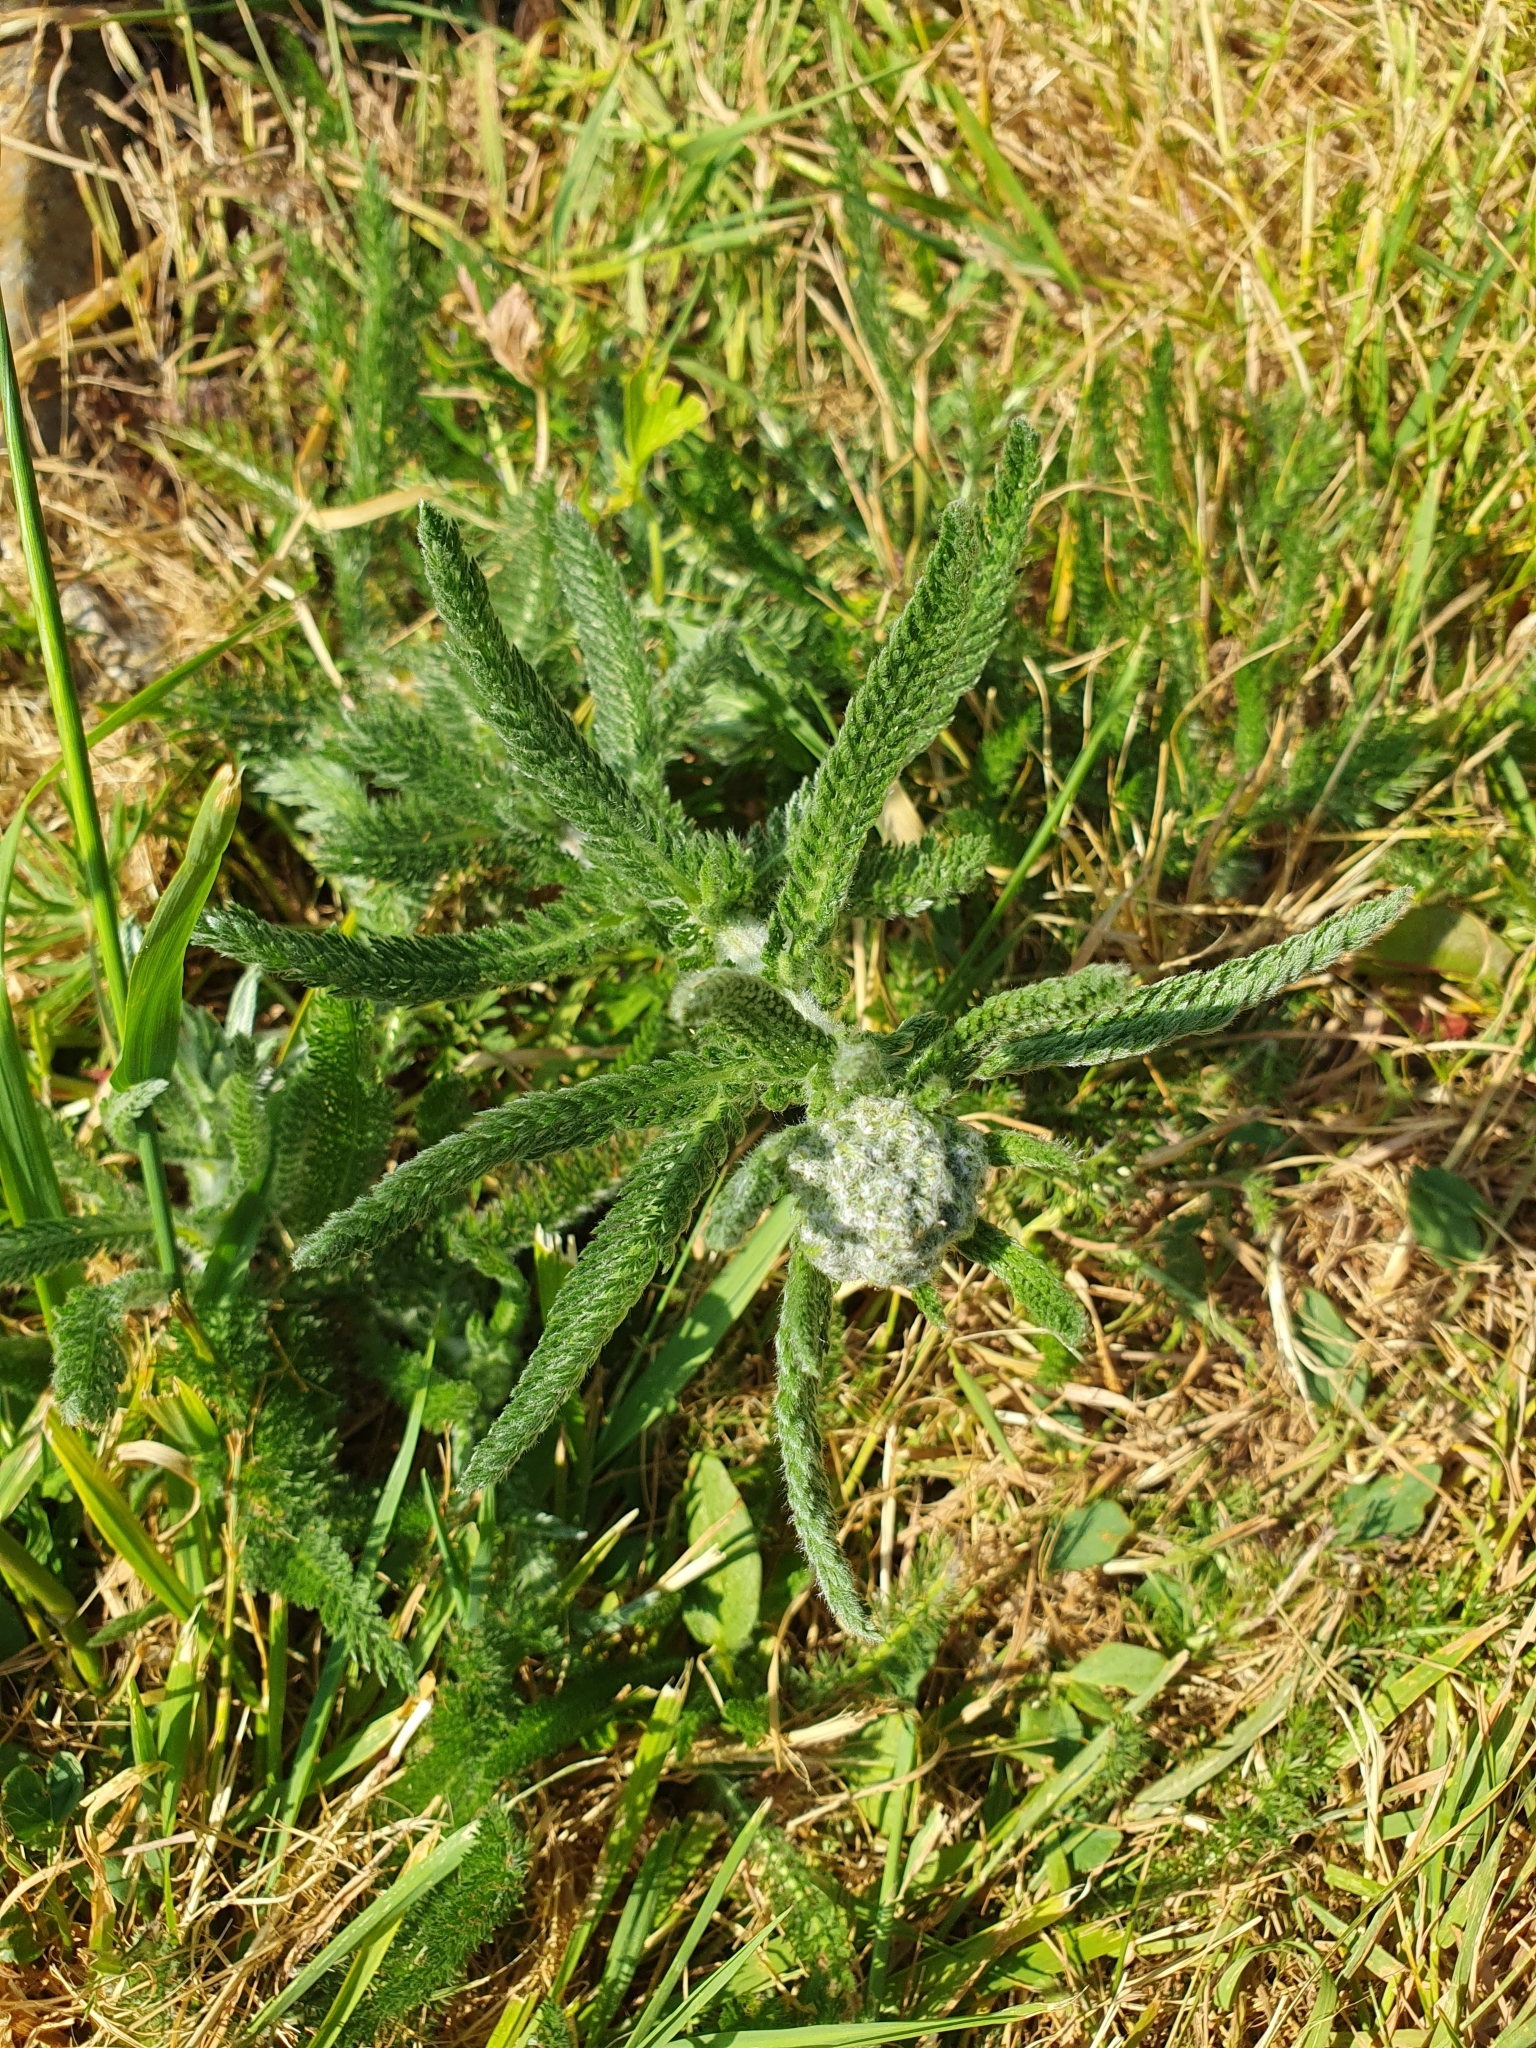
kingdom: Plantae
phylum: Tracheophyta
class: Magnoliopsida
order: Asterales
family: Asteraceae
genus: Achillea
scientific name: Achillea millefolium
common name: Yarrow
